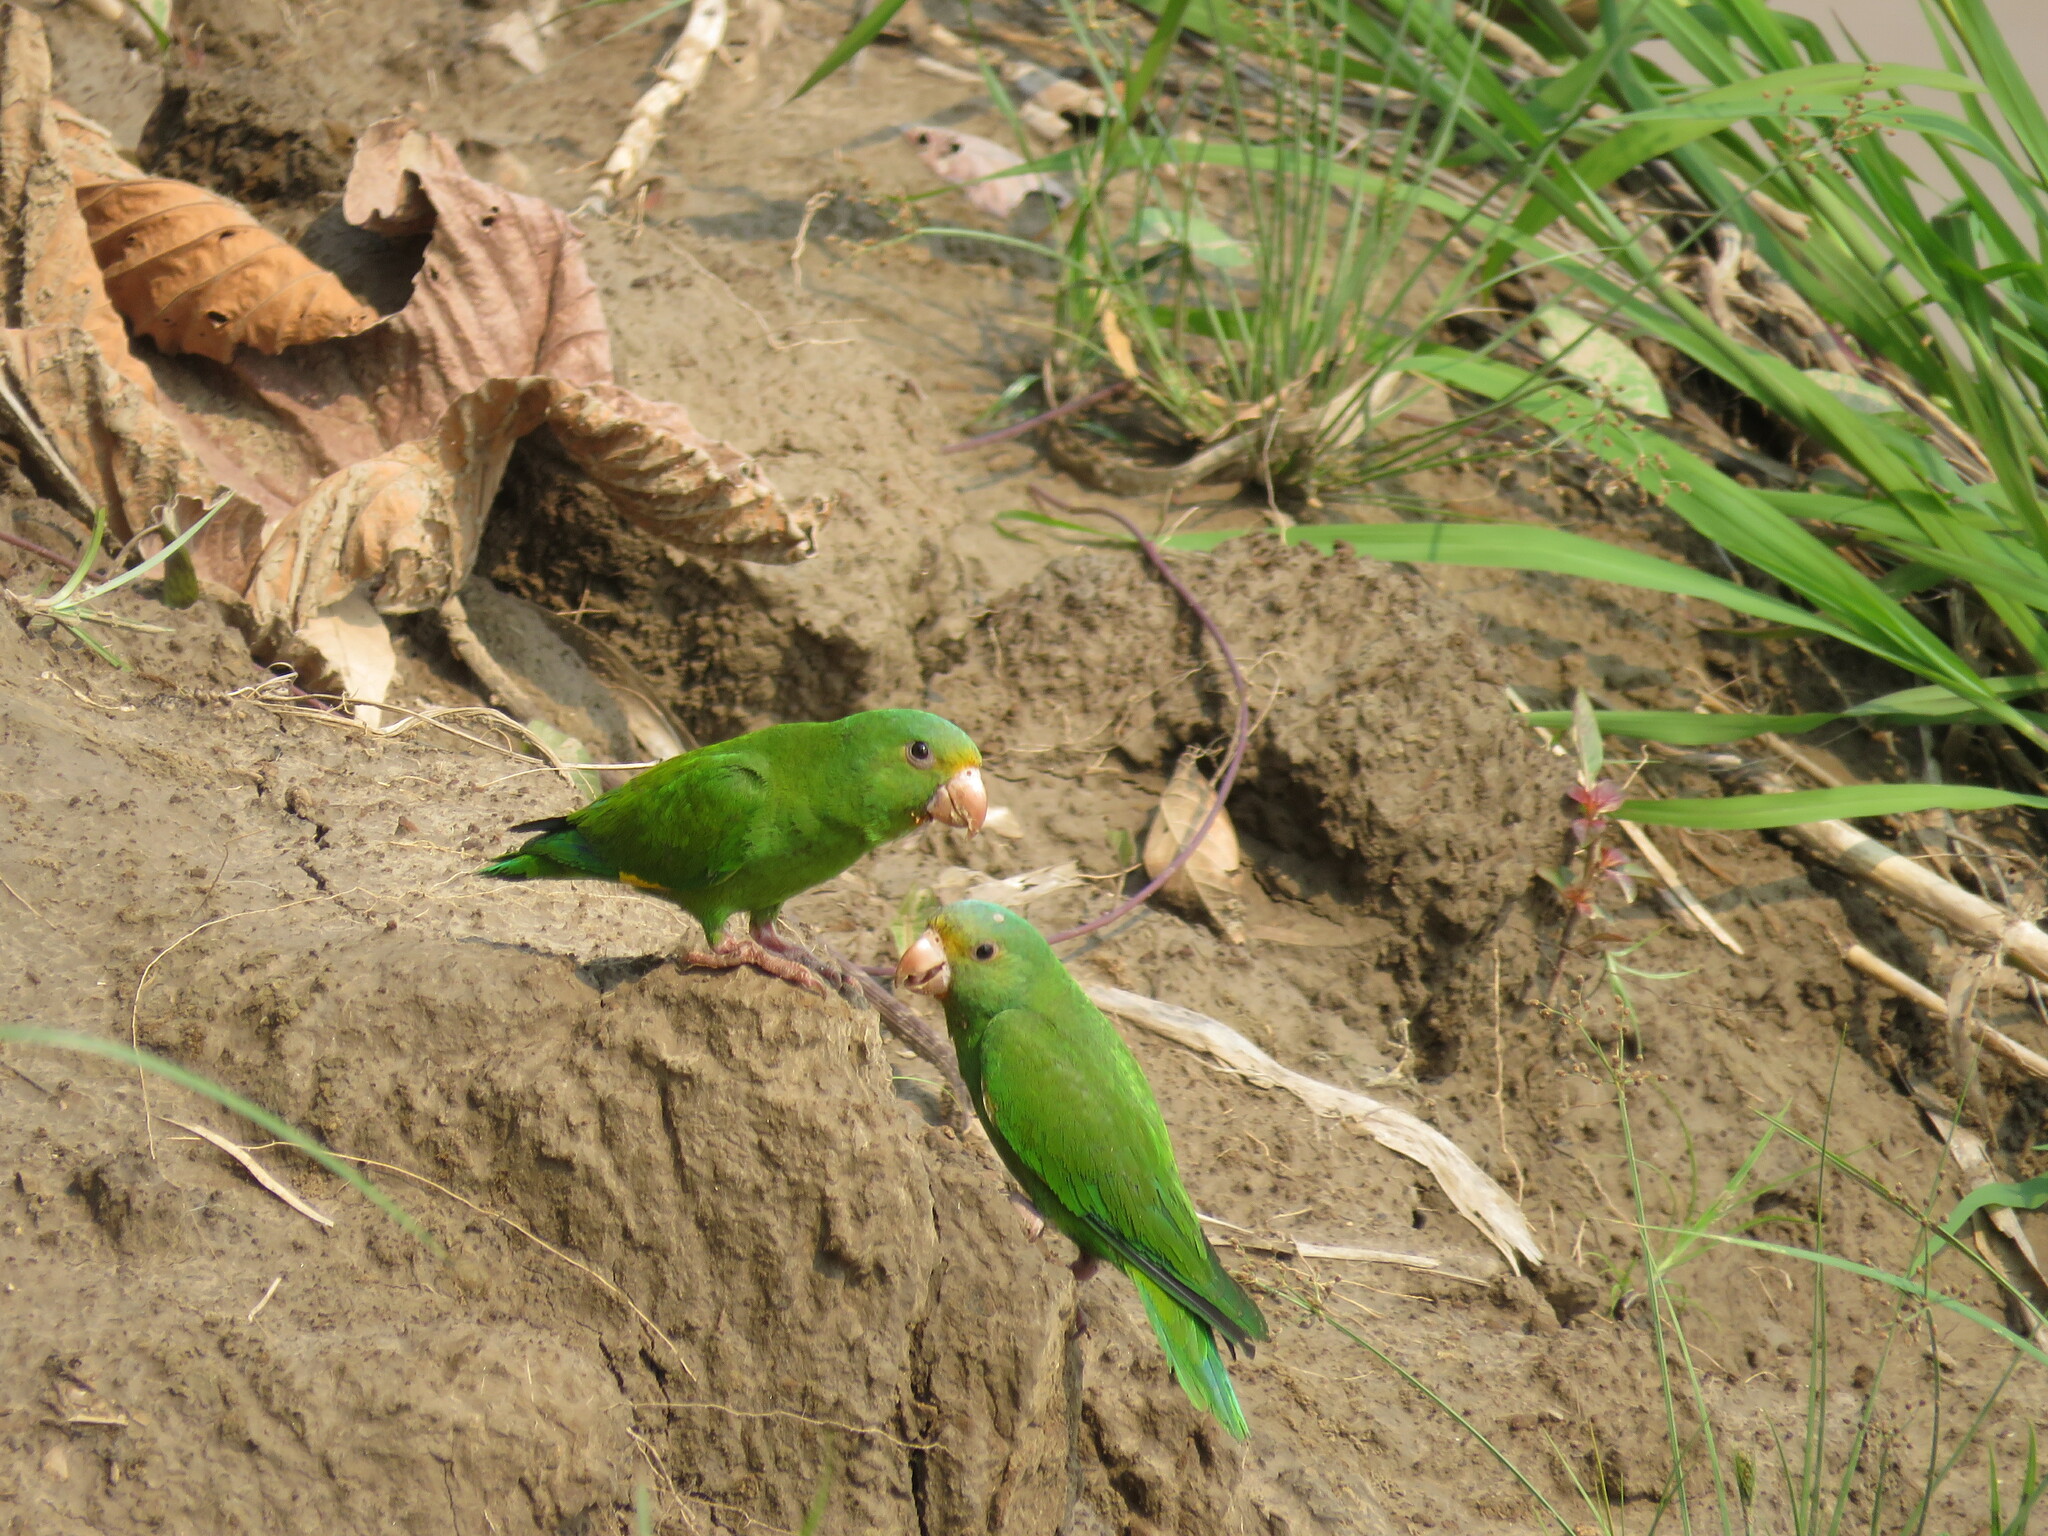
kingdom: Animalia
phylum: Chordata
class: Aves
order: Psittaciformes
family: Psittacidae
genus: Brotogeris
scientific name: Brotogeris cyanoptera
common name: Cobalt-winged parakeet
